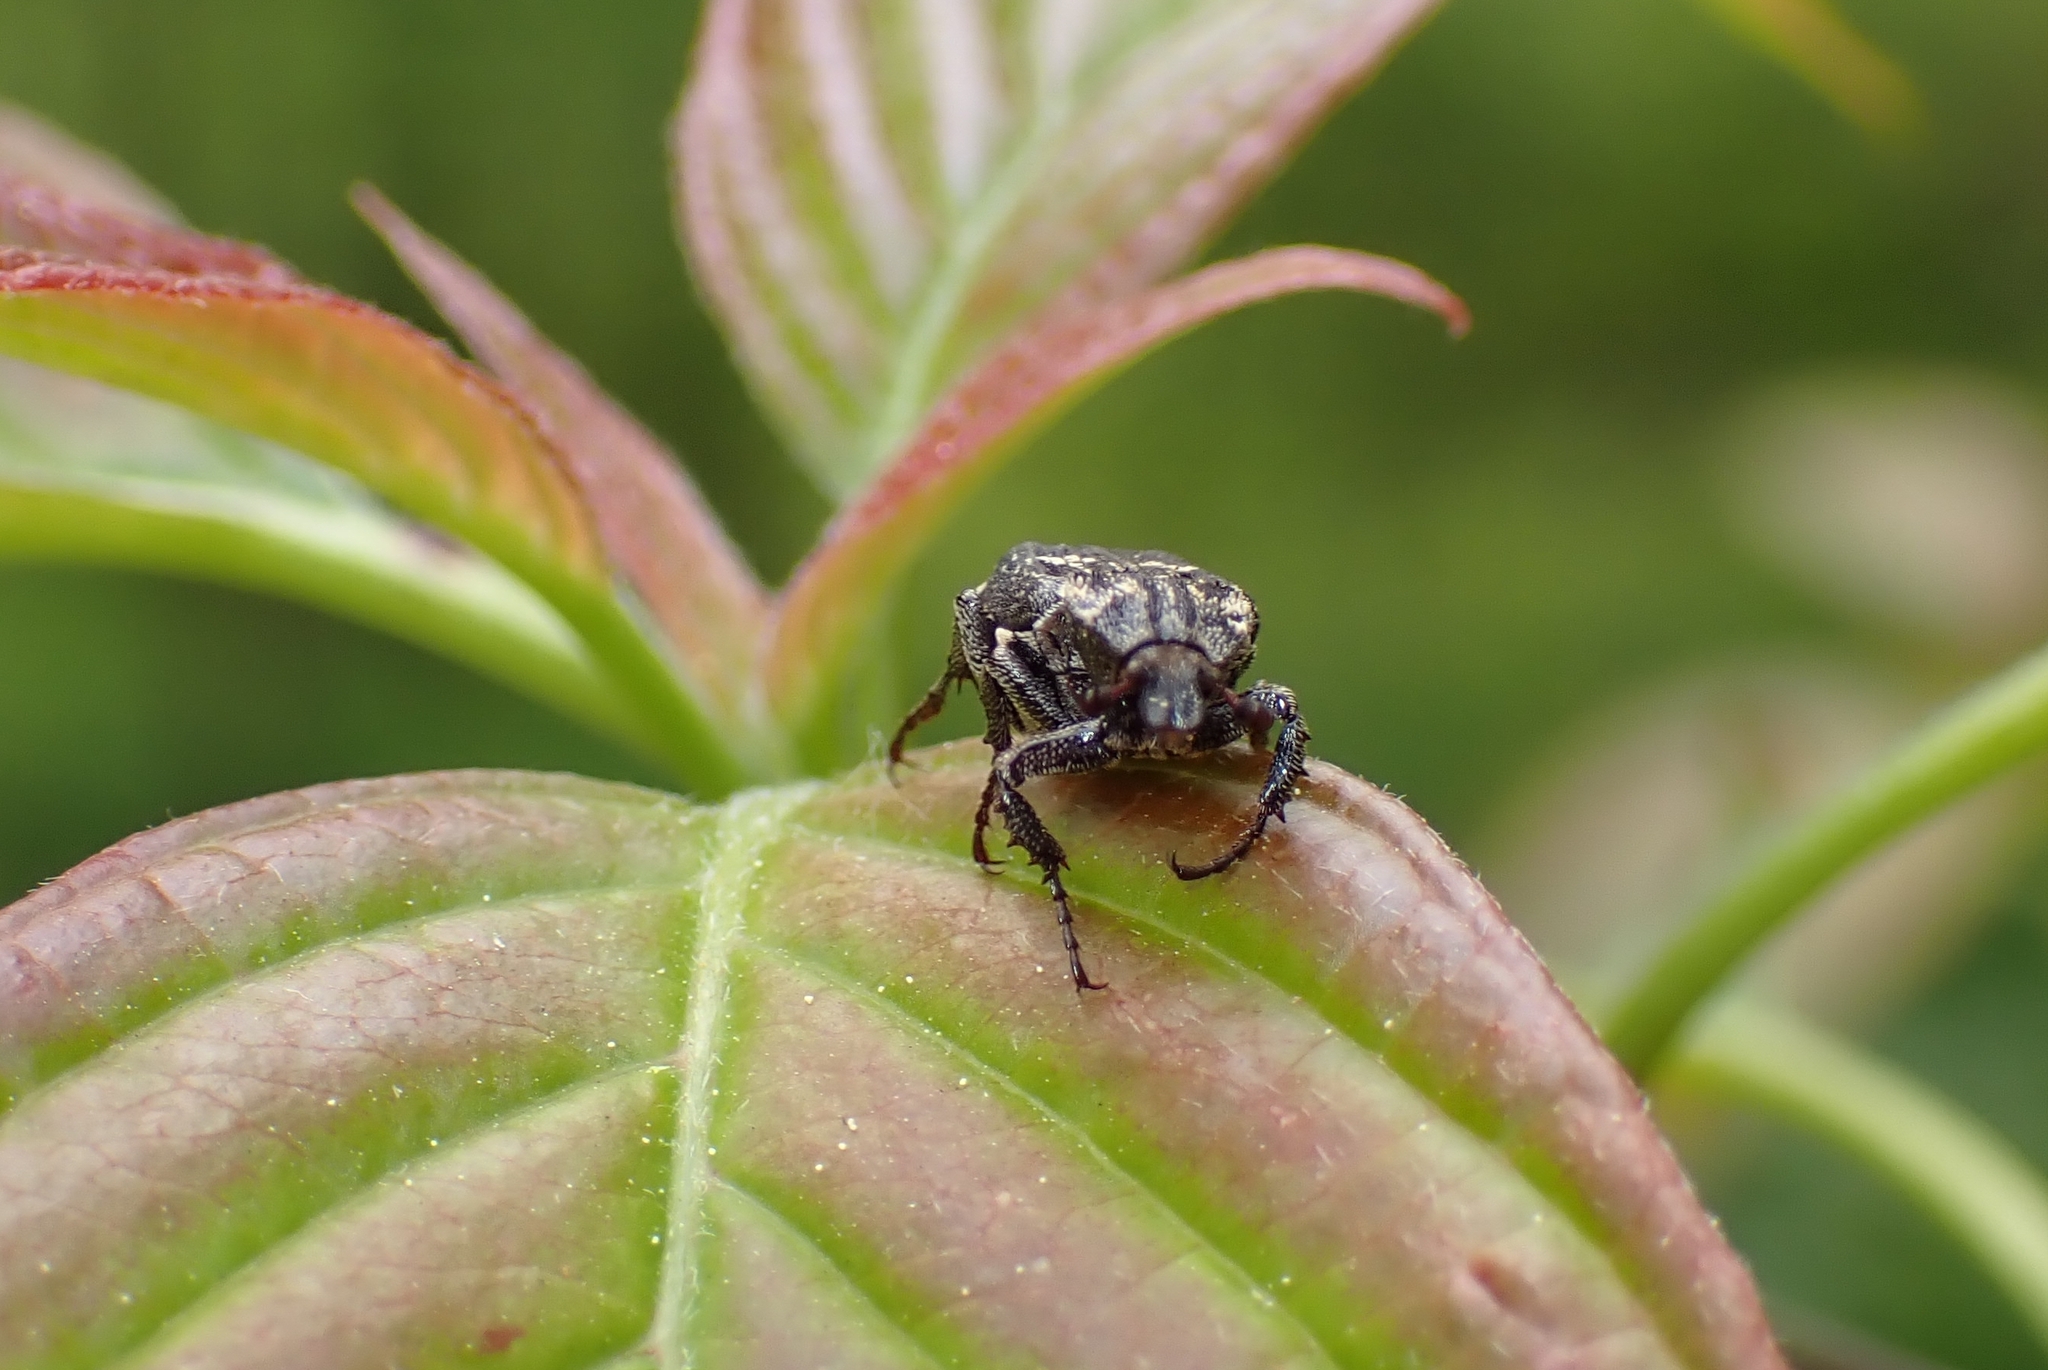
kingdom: Animalia
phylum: Arthropoda
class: Insecta
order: Coleoptera
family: Scarabaeidae
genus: Valgus
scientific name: Valgus hemipterus
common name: Bug flower chafer
